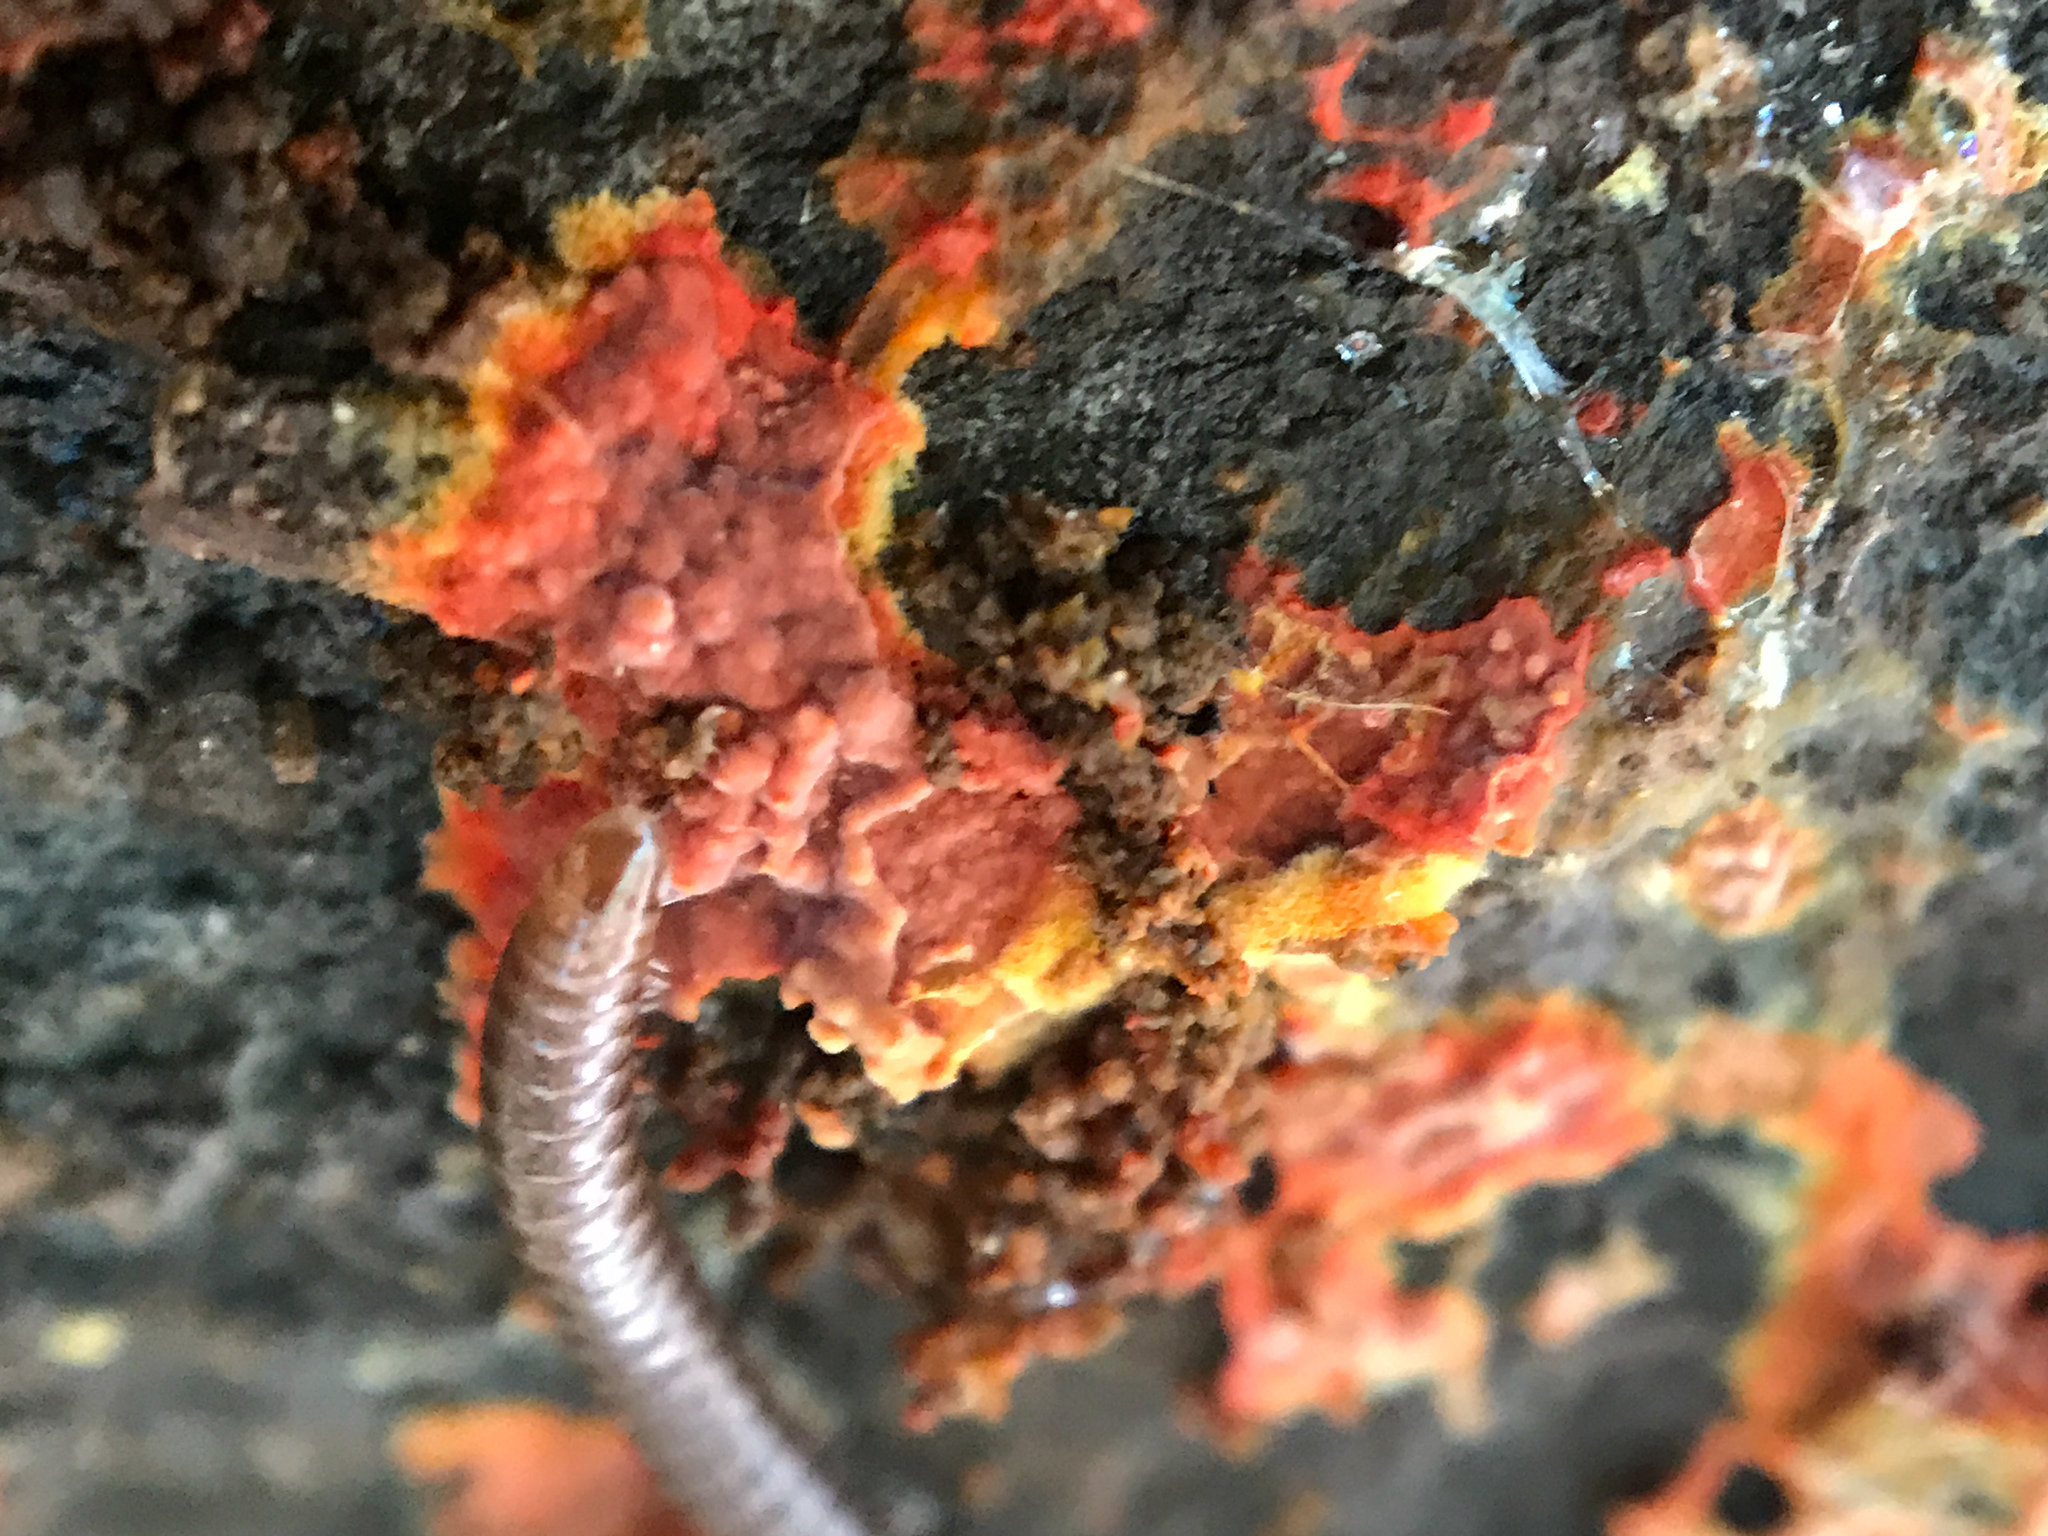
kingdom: Fungi
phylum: Basidiomycota
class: Agaricomycetes
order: Polyporales
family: Meruliaceae
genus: Phlebia
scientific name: Phlebia coccineofulva
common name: Scarlet waxcrust
